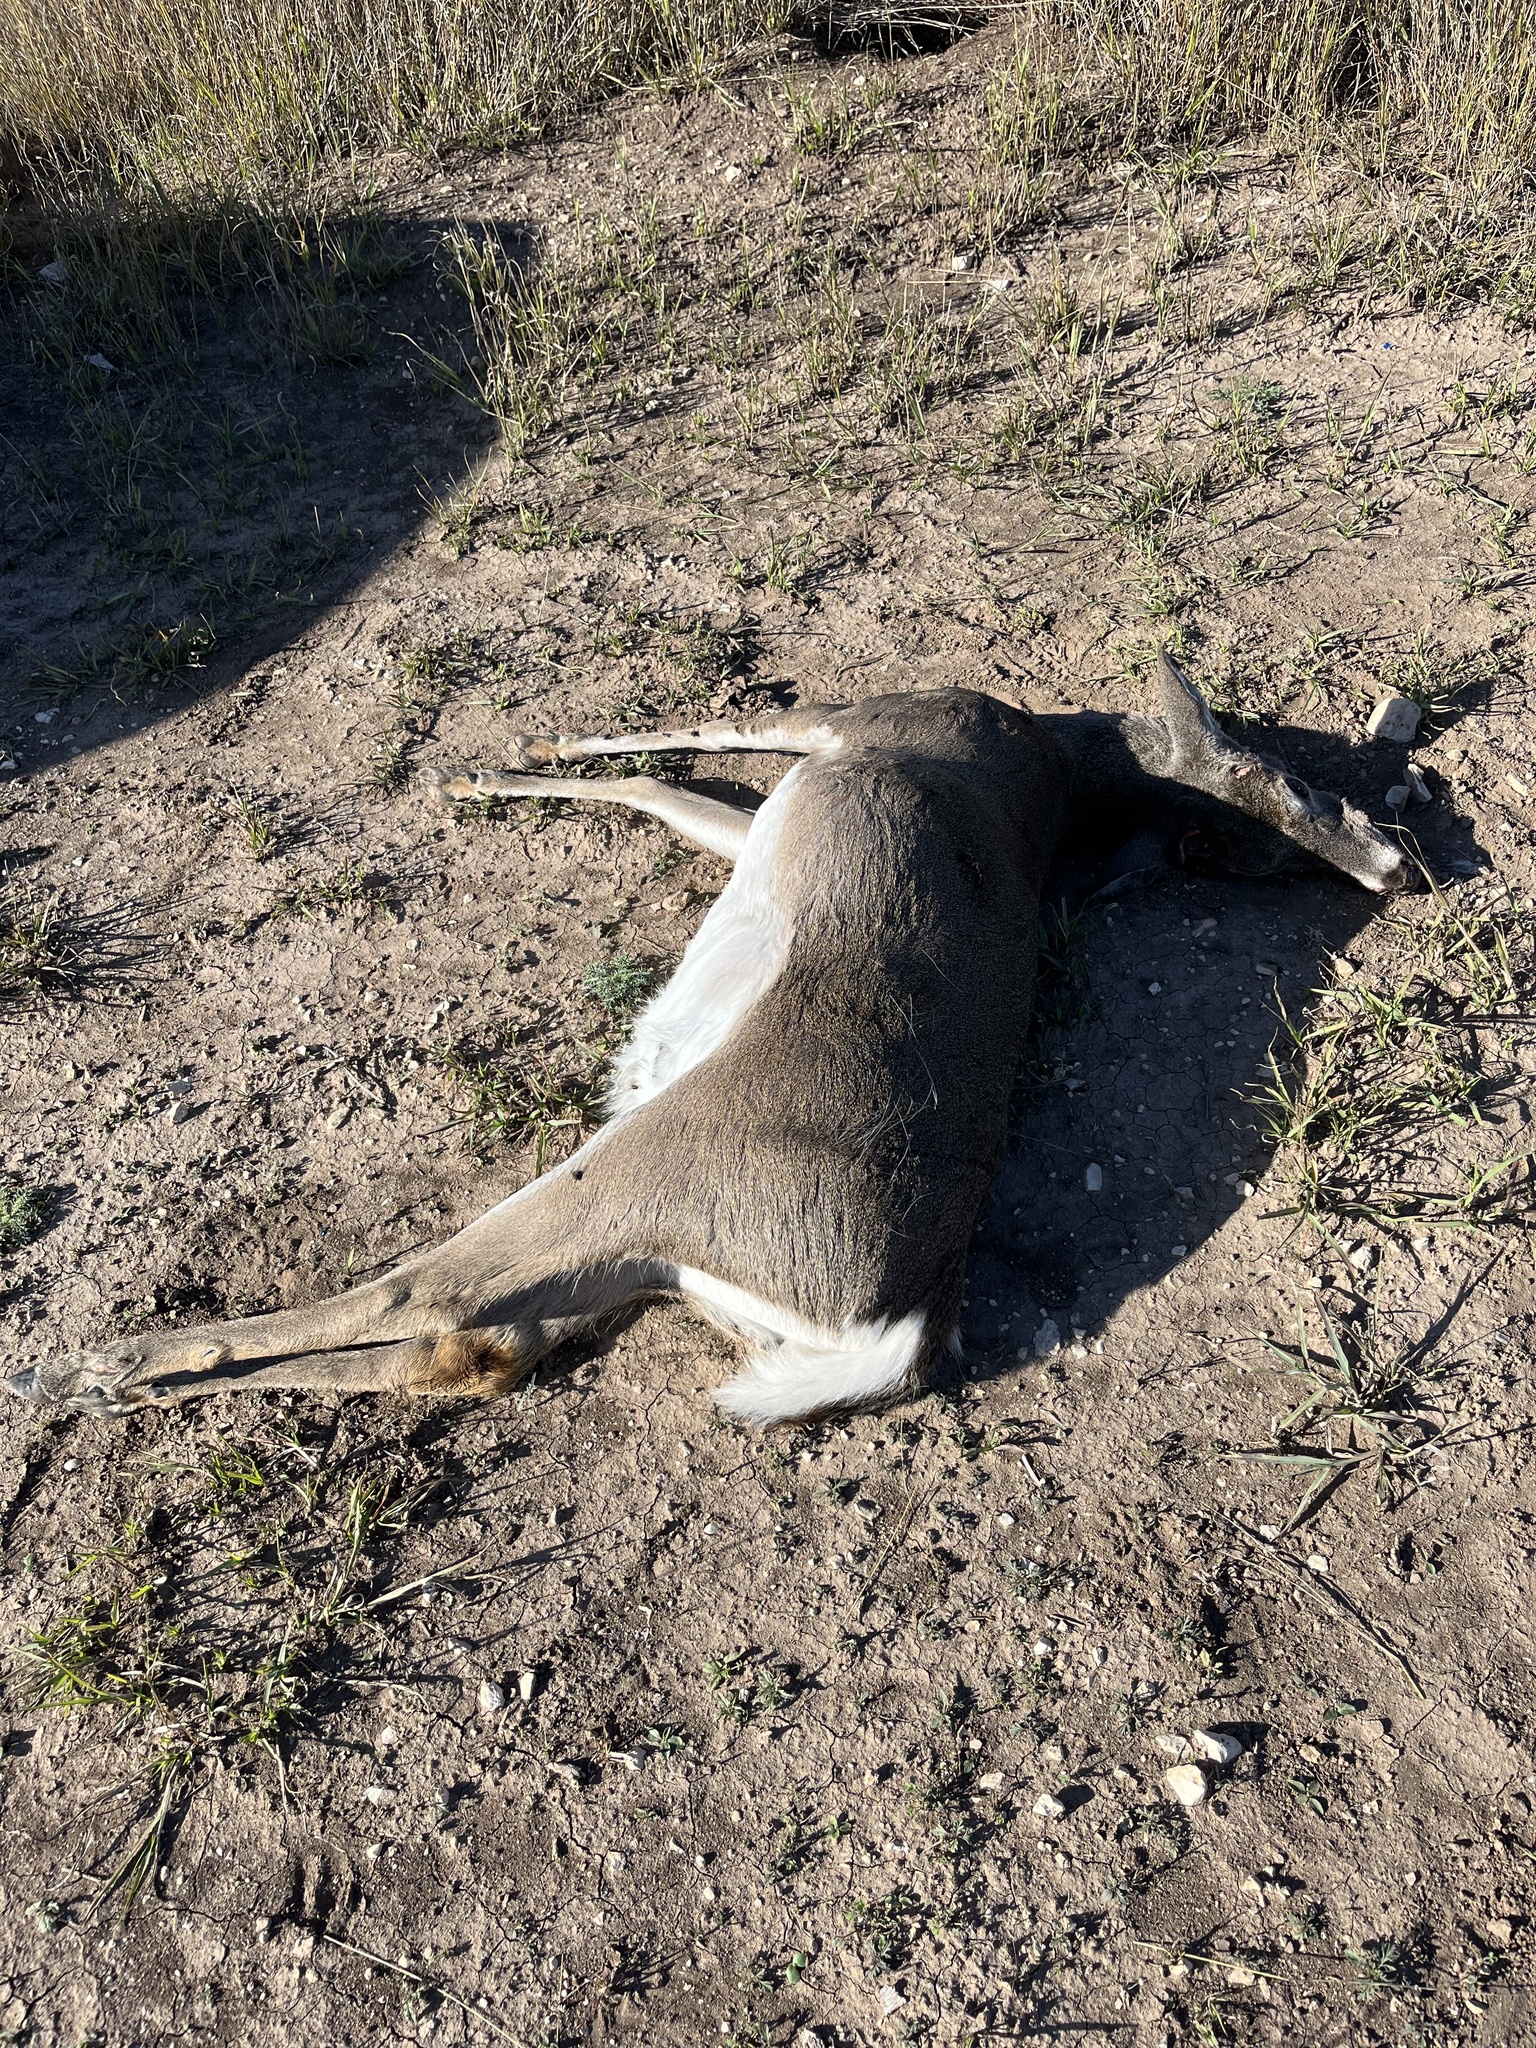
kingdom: Animalia
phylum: Chordata
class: Mammalia
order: Artiodactyla
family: Cervidae
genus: Odocoileus
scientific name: Odocoileus virginianus
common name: White-tailed deer
